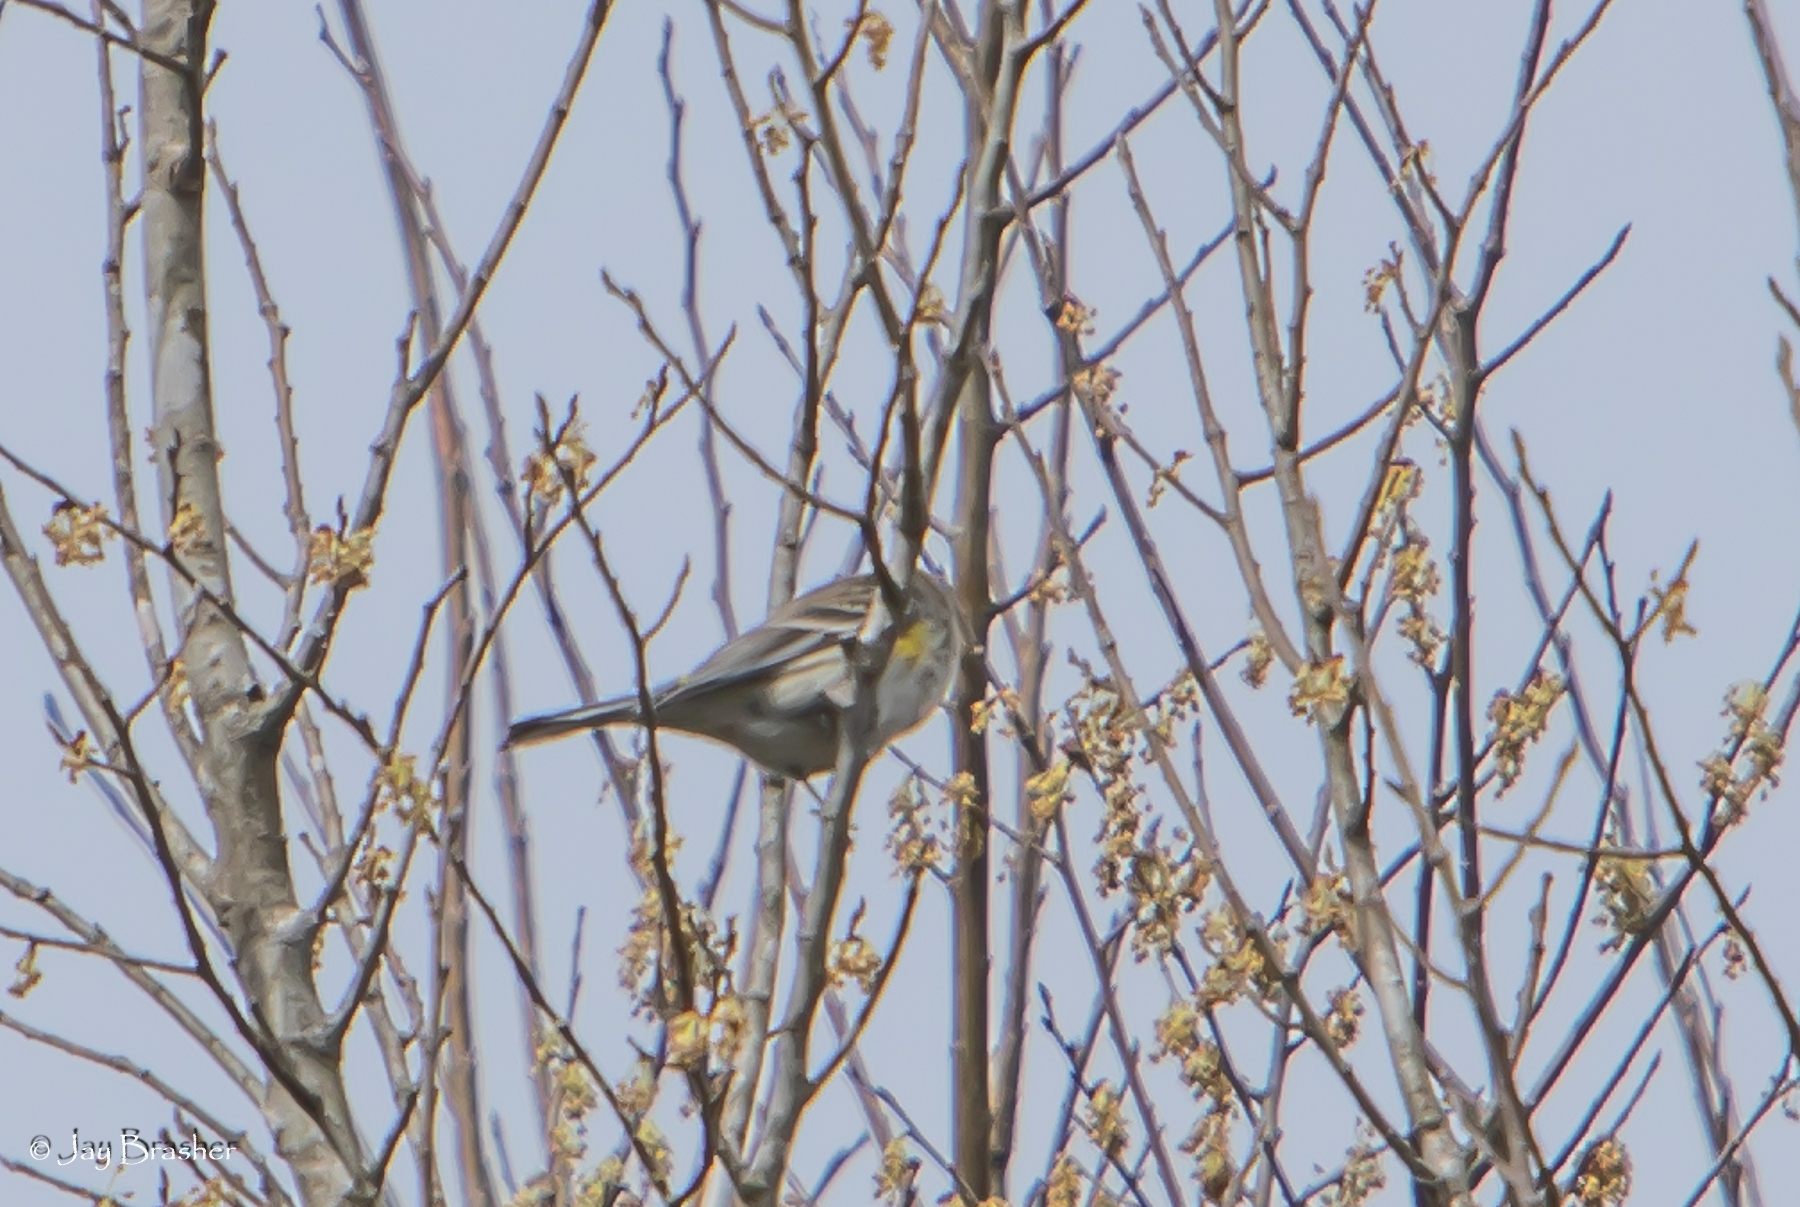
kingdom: Animalia
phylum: Chordata
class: Aves
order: Passeriformes
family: Parulidae
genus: Setophaga
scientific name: Setophaga coronata
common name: Myrtle warbler
